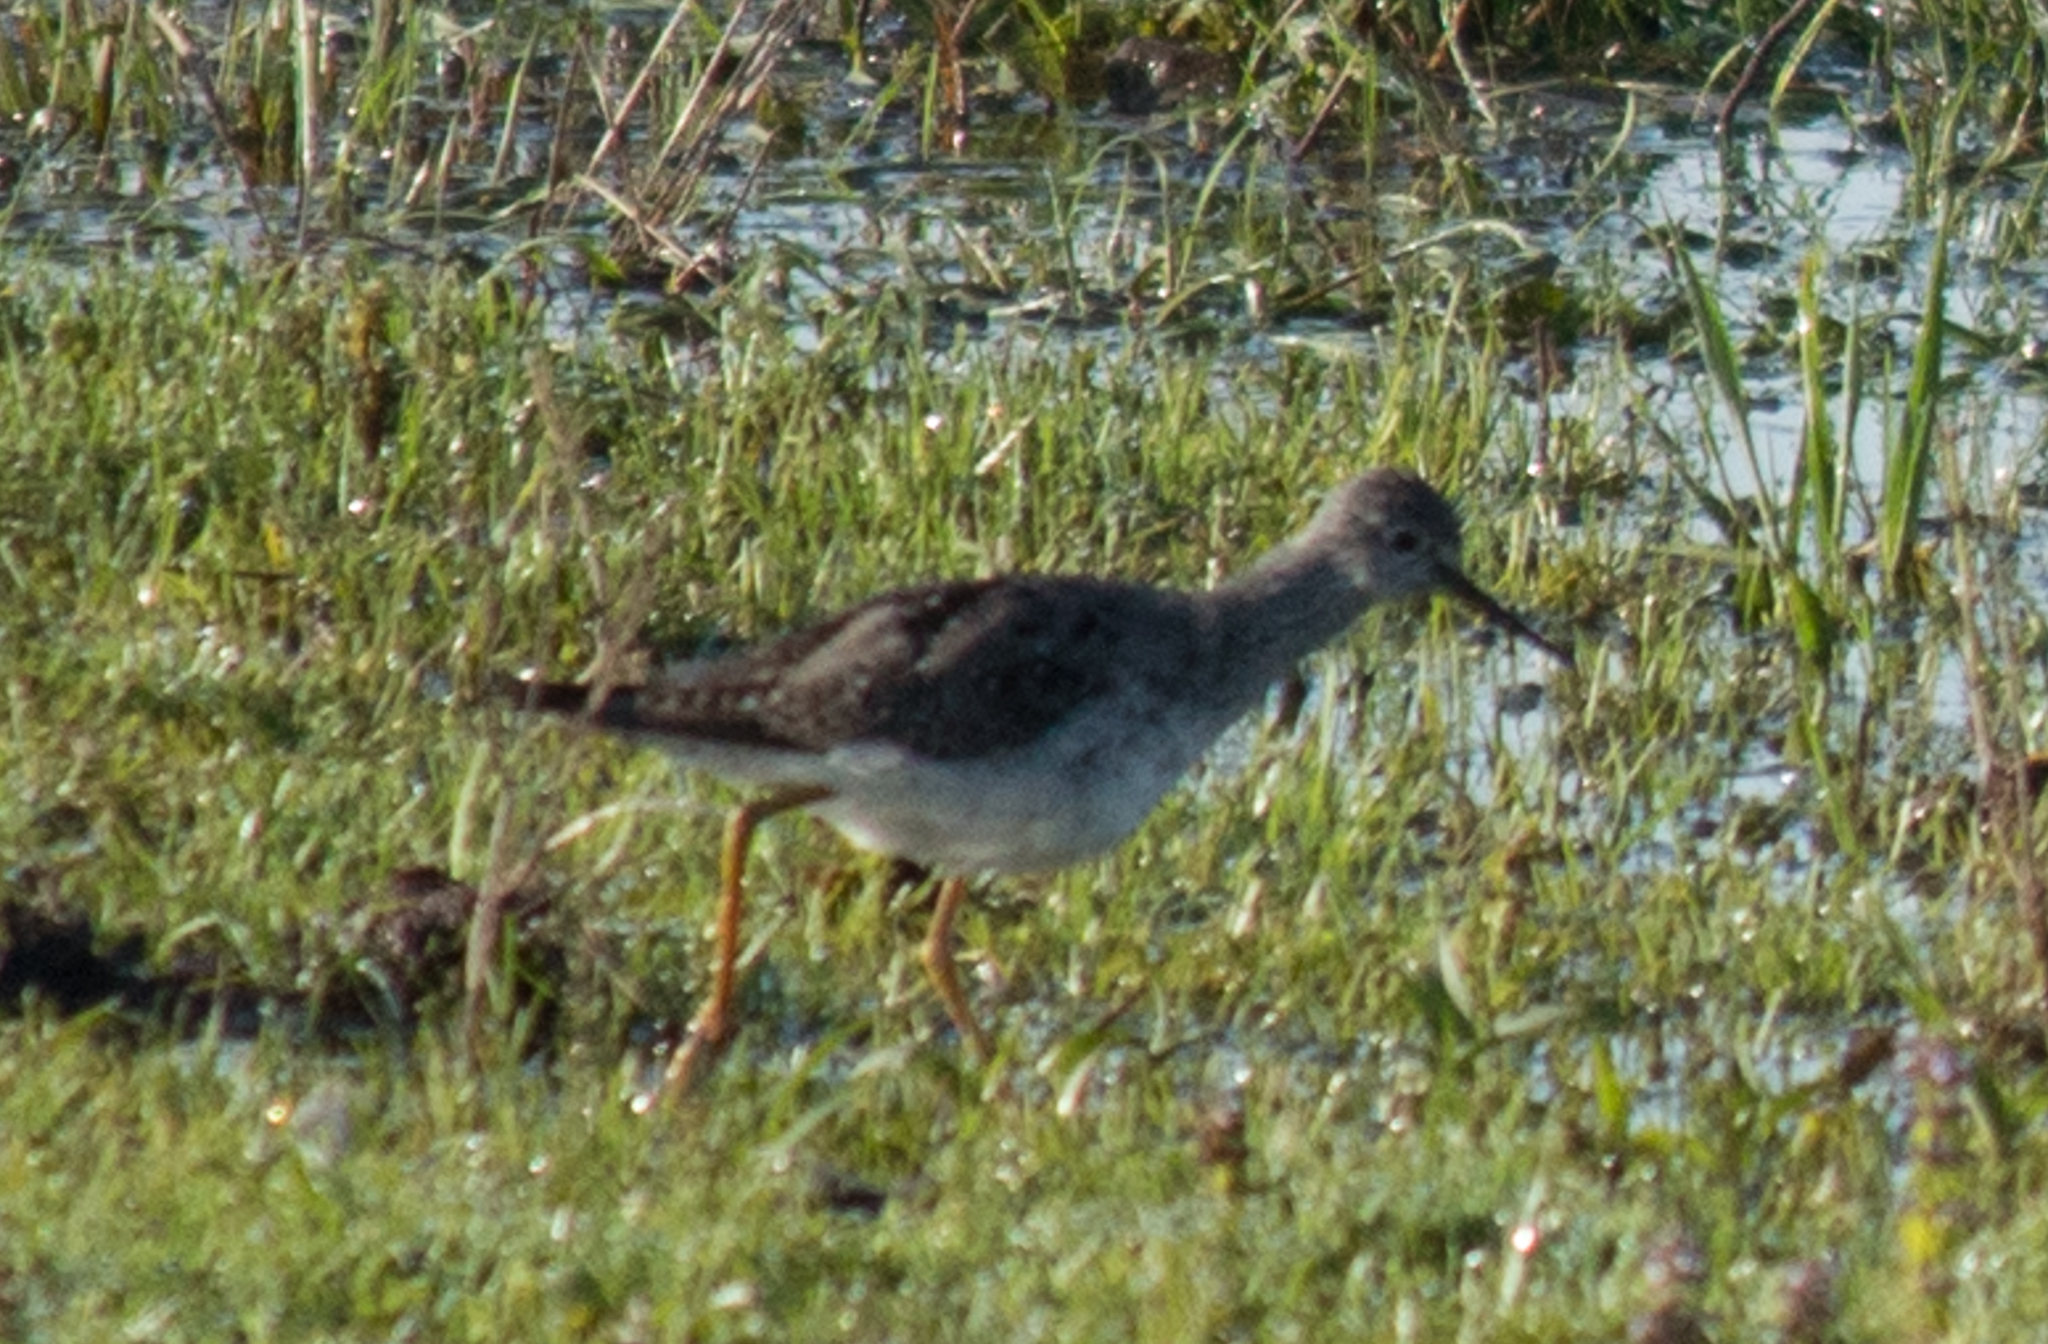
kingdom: Animalia
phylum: Chordata
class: Aves
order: Charadriiformes
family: Scolopacidae
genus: Tringa
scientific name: Tringa flavipes
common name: Lesser yellowlegs
